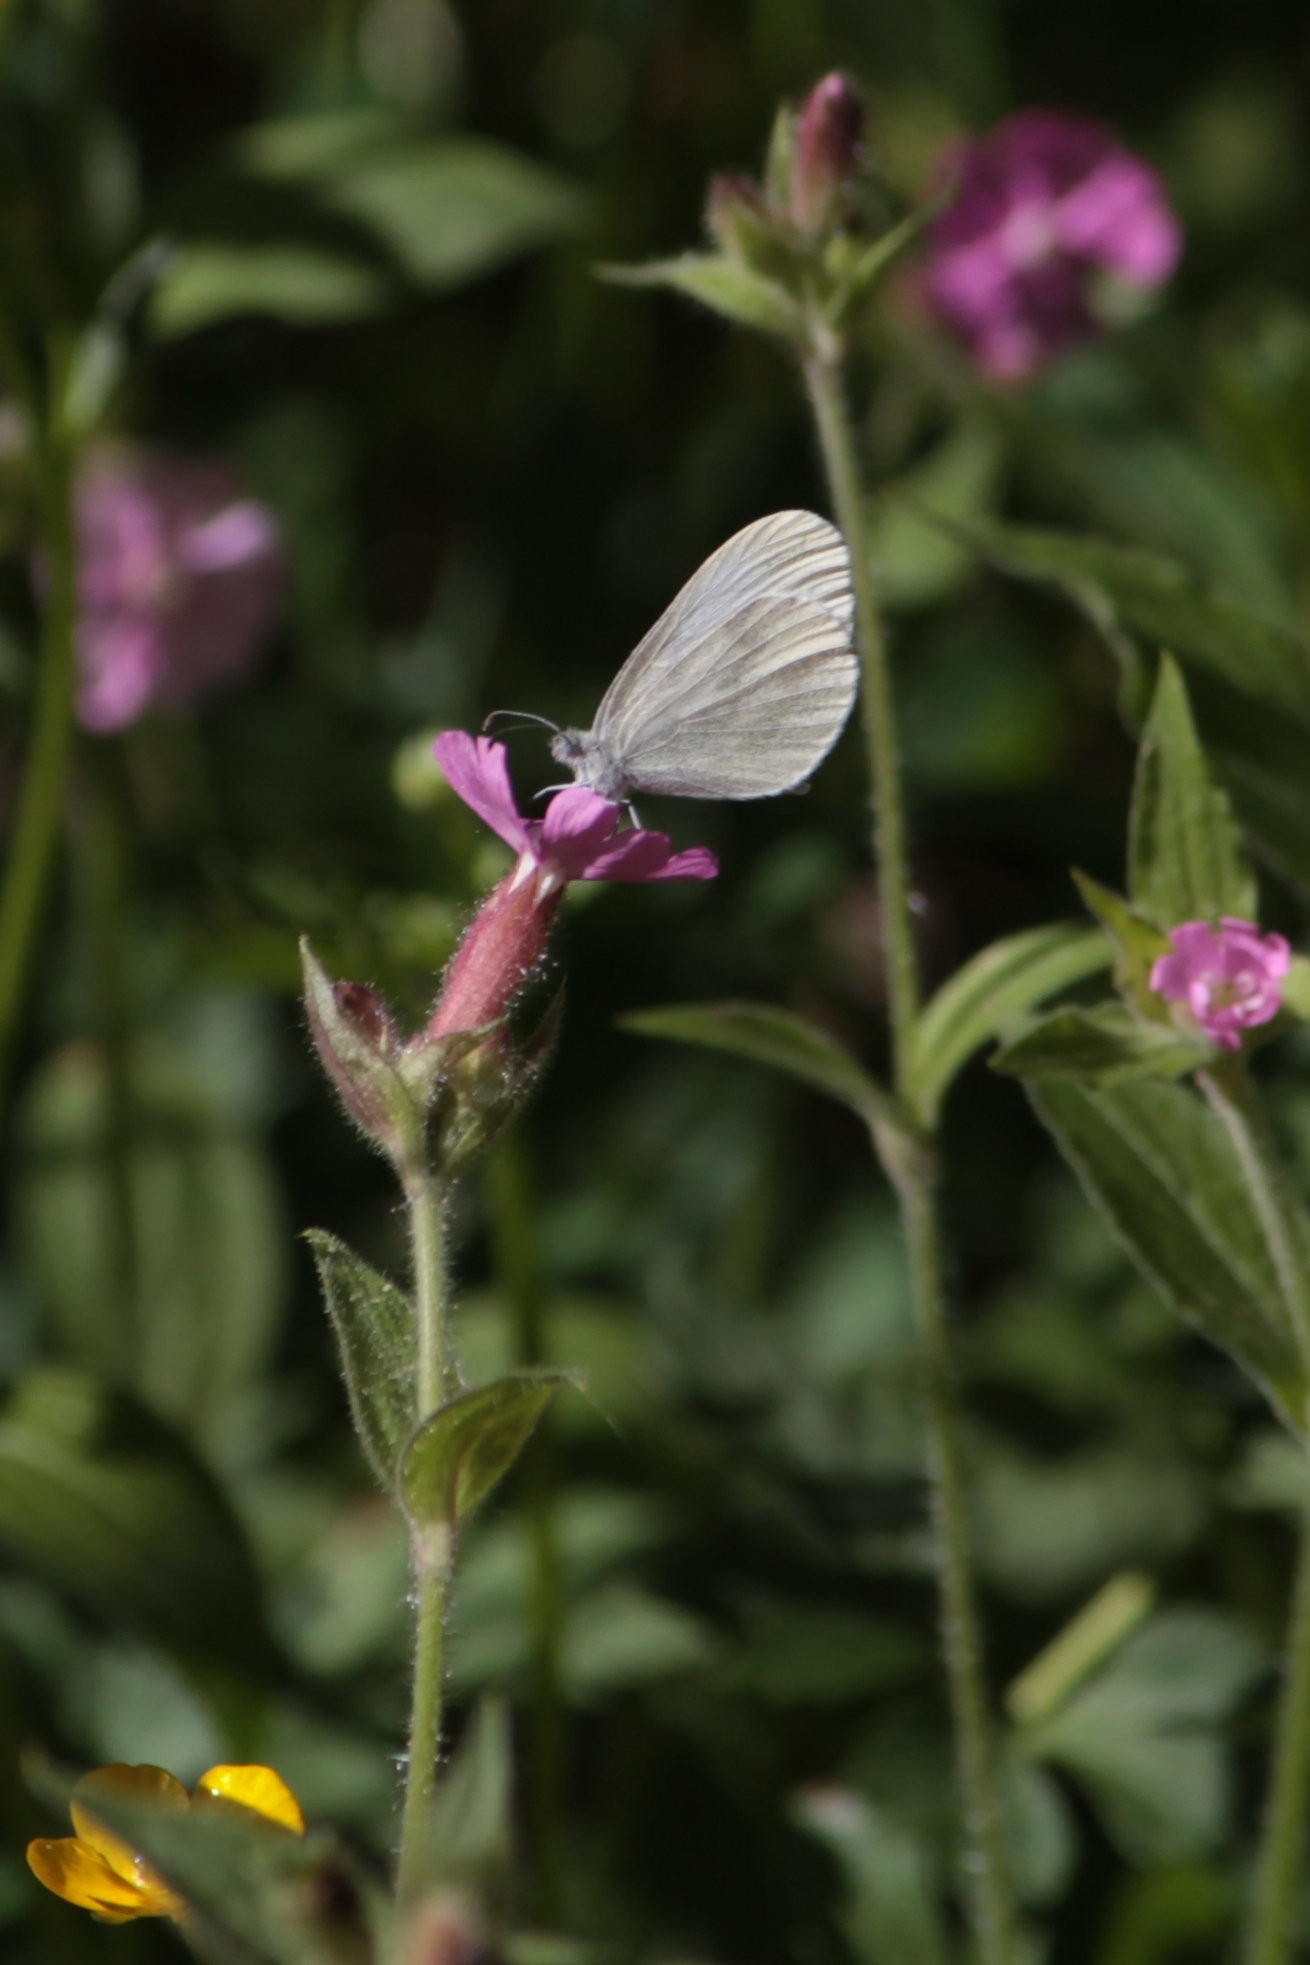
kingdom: Animalia
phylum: Arthropoda
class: Insecta
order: Lepidoptera
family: Pieridae
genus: Leptidea
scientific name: Leptidea
